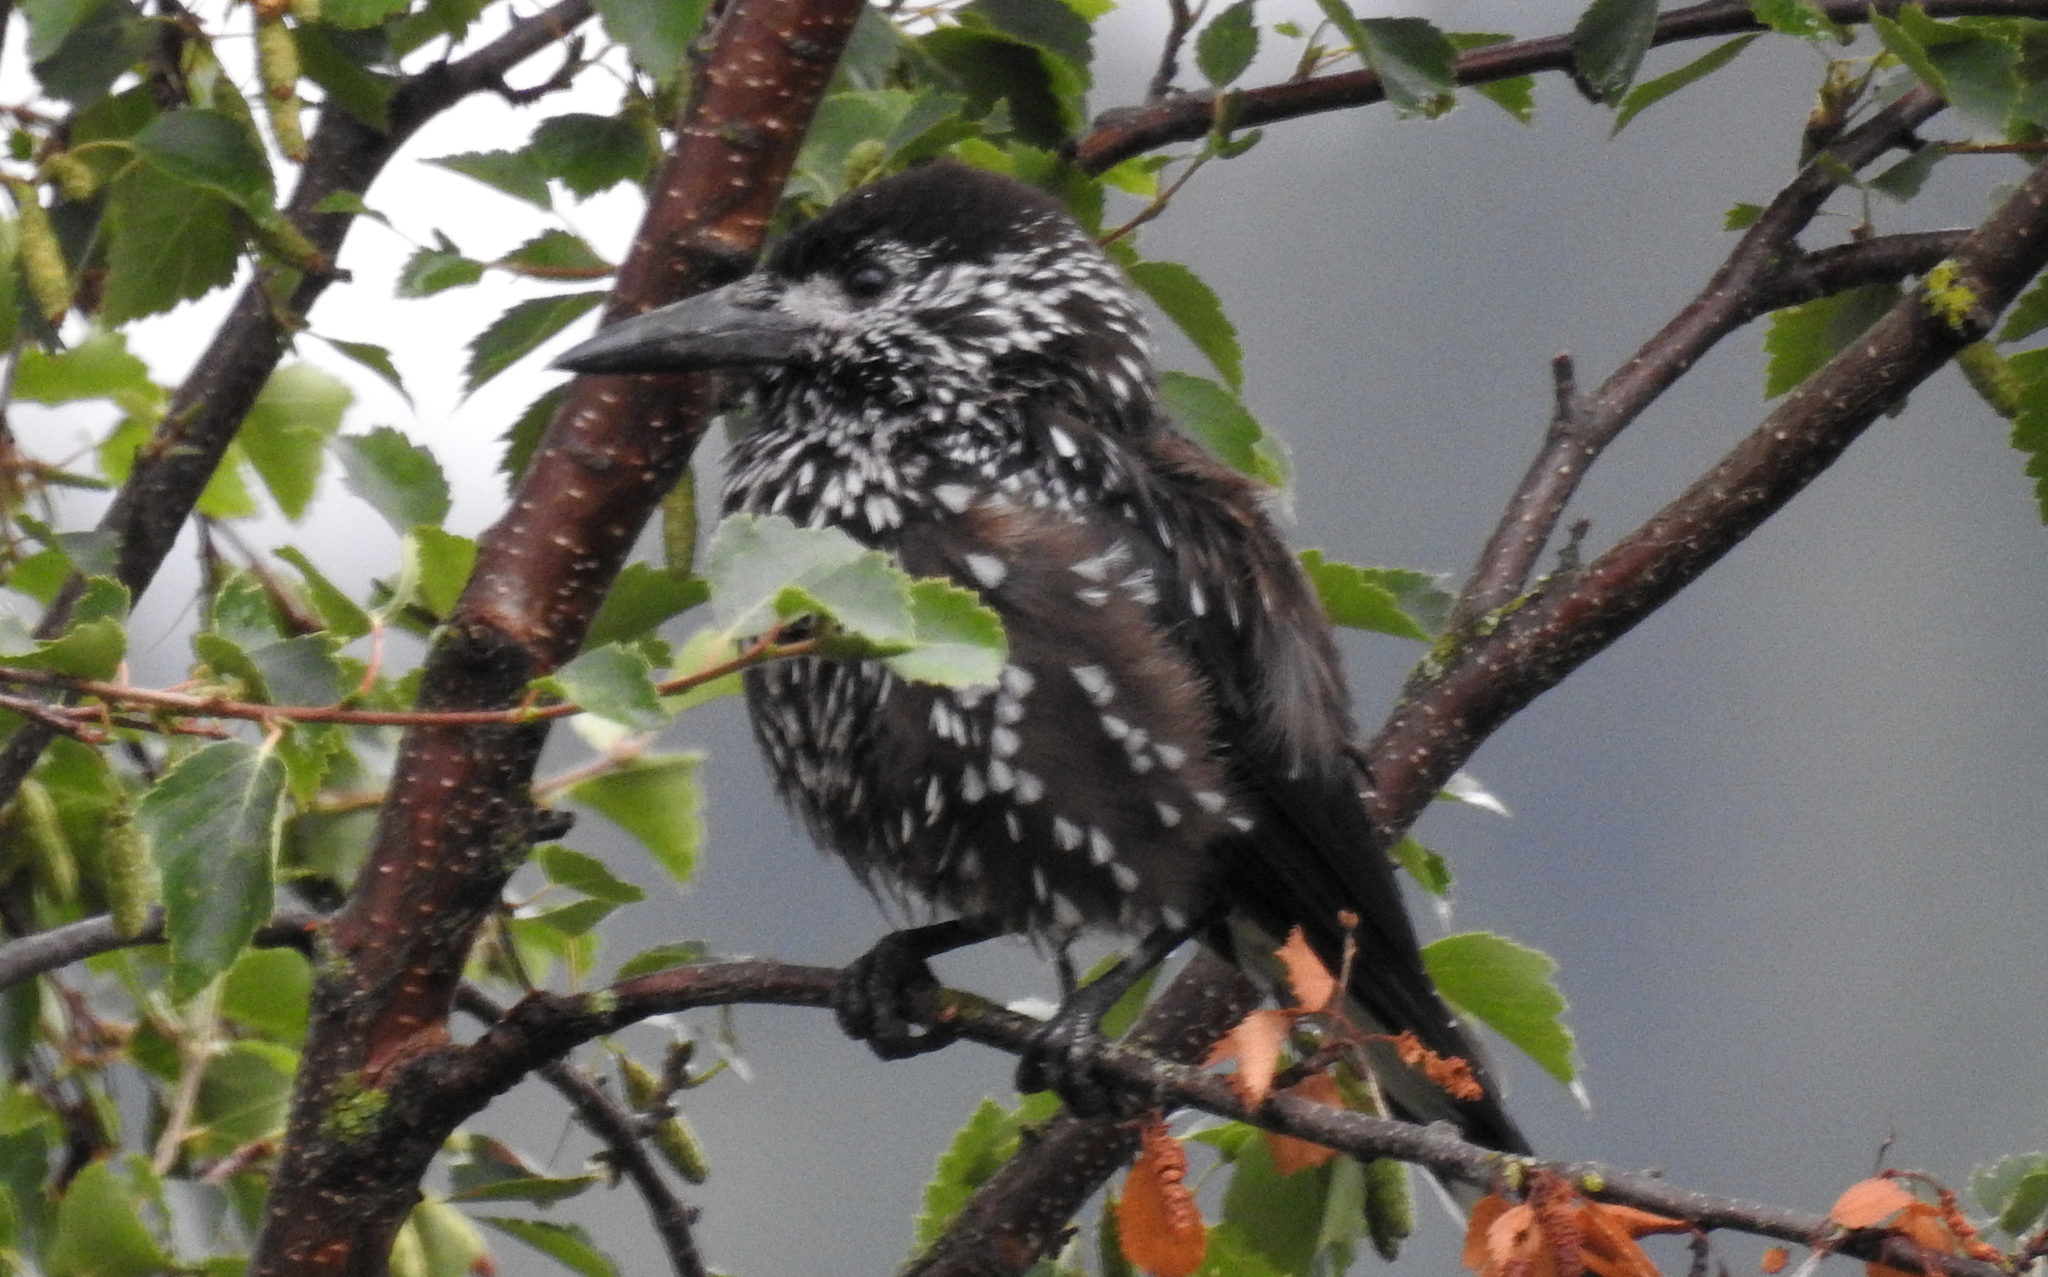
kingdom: Animalia
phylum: Chordata
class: Aves
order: Passeriformes
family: Corvidae
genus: Nucifraga
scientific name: Nucifraga caryocatactes
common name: Spotted nutcracker
